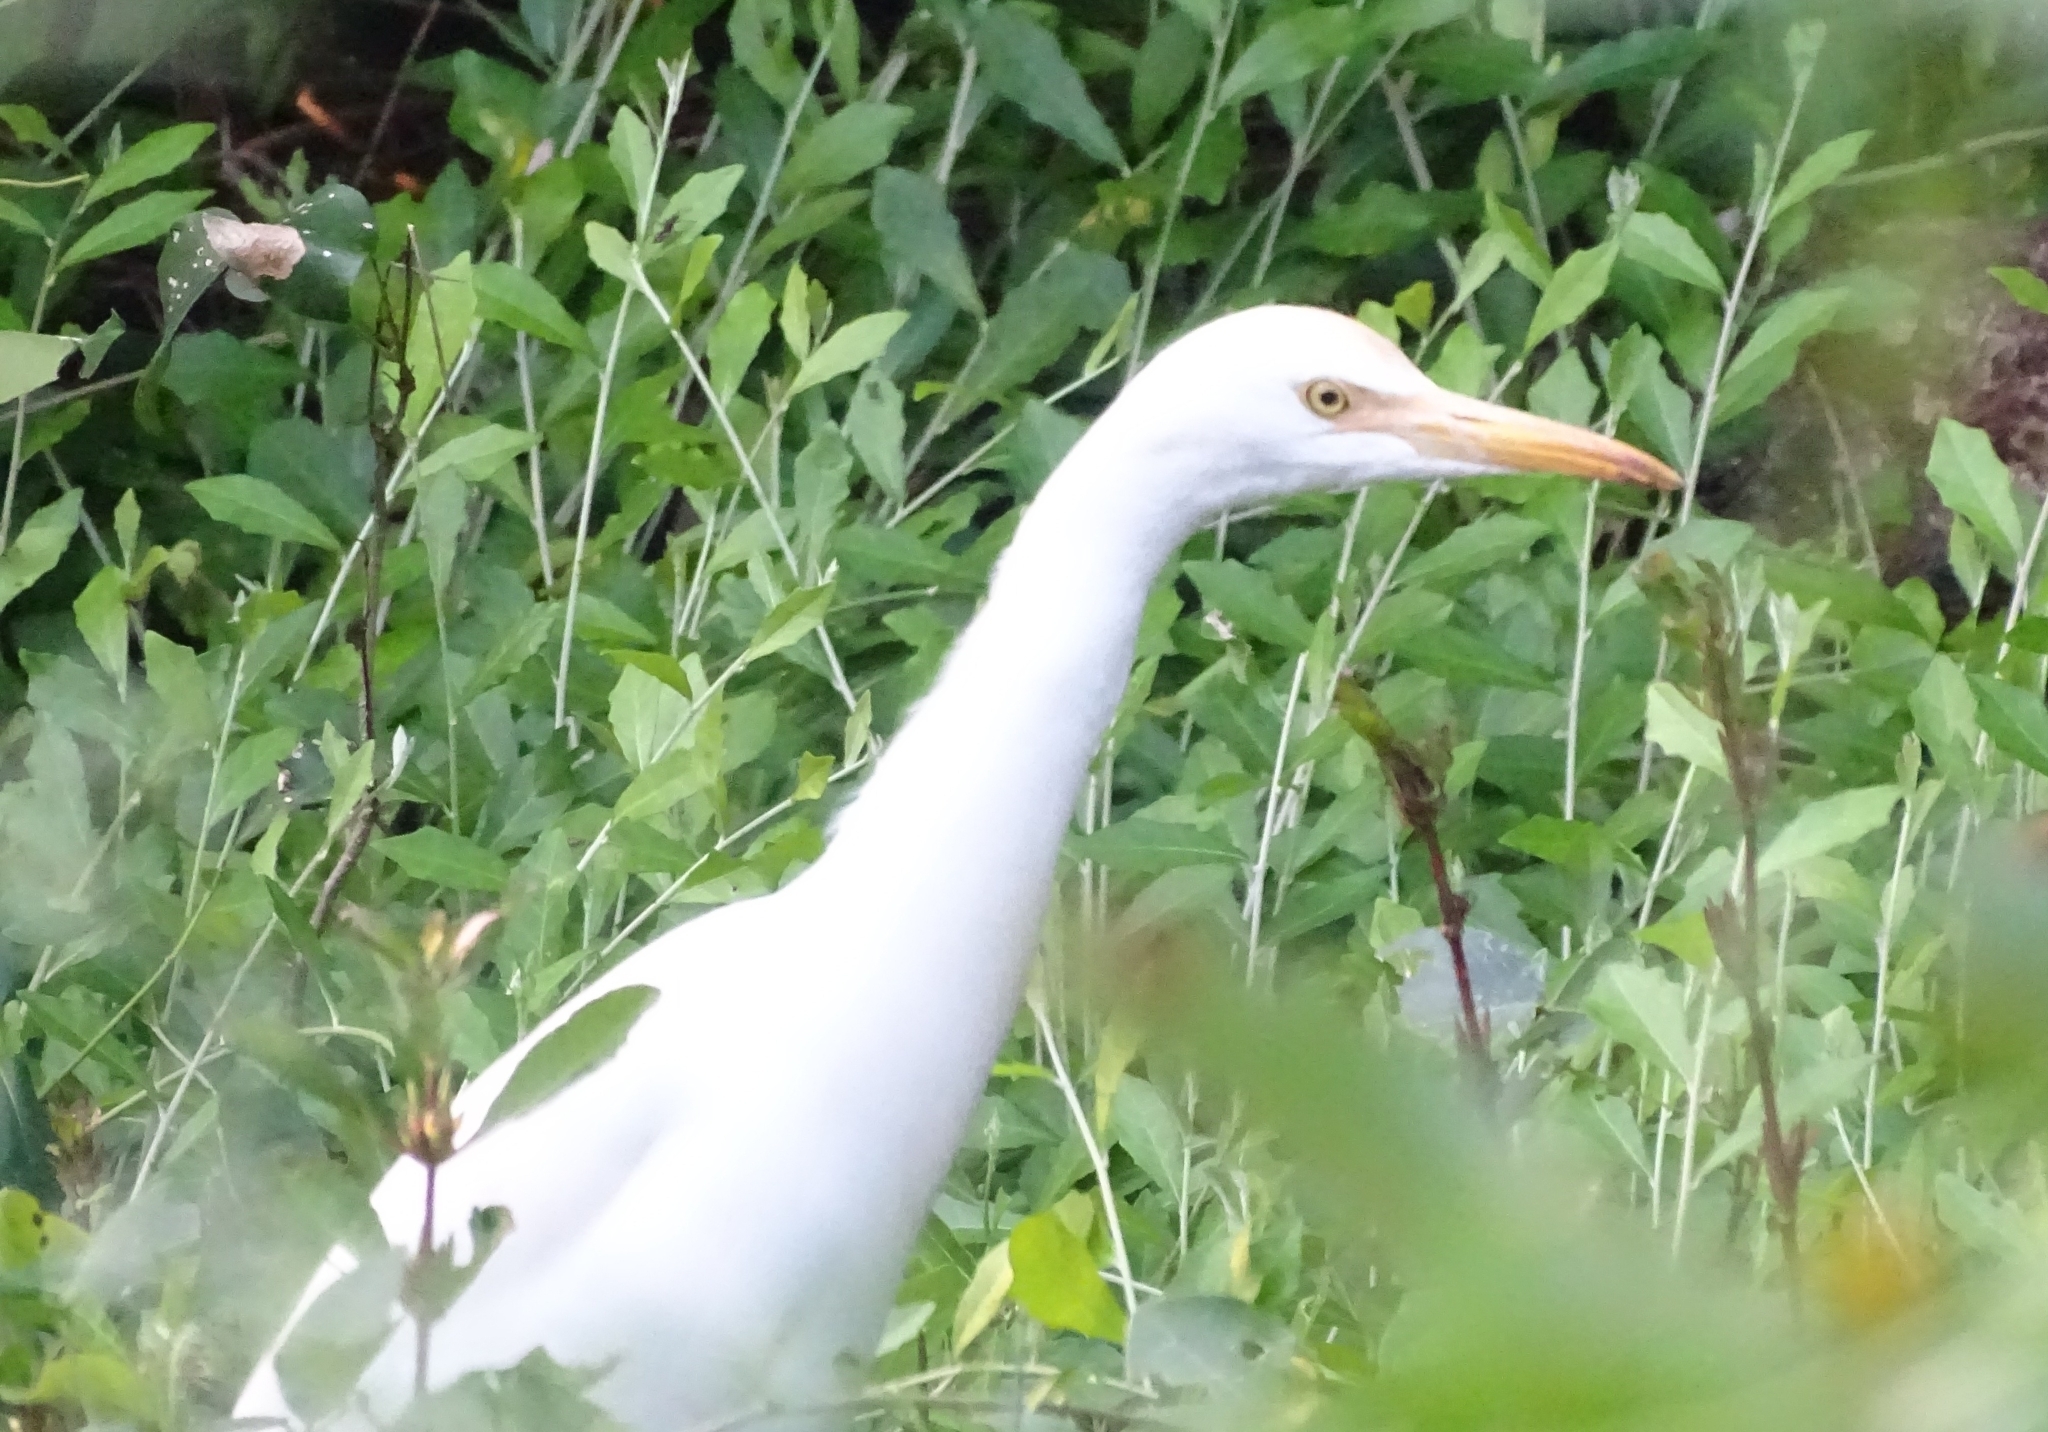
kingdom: Animalia
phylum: Chordata
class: Aves
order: Pelecaniformes
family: Ardeidae
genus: Bubulcus
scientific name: Bubulcus coromandus
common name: Eastern cattle egret
